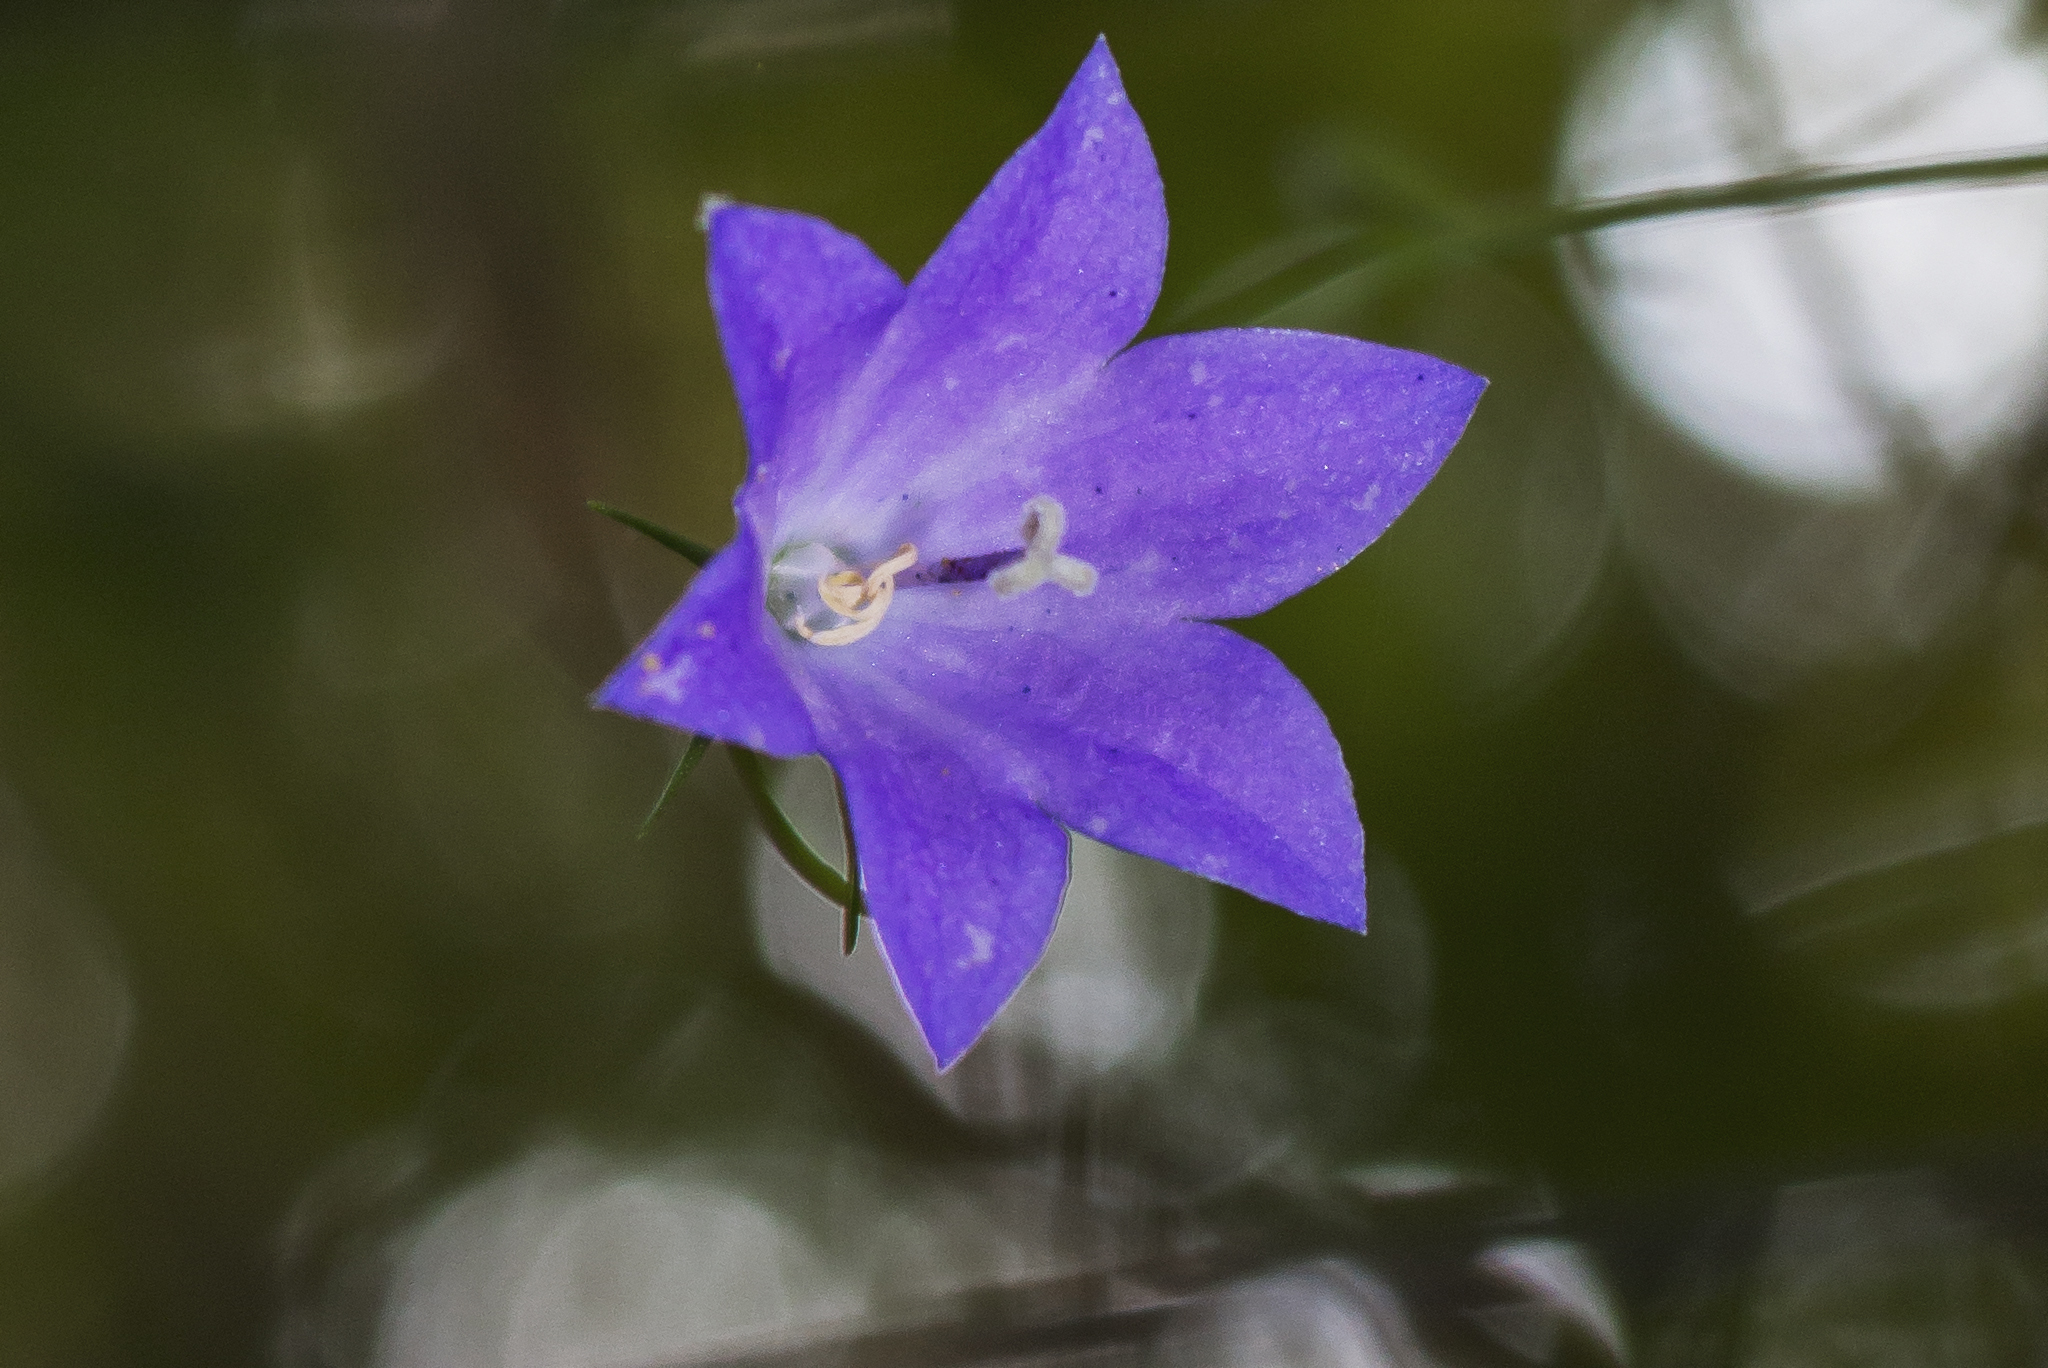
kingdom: Plantae
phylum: Tracheophyta
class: Magnoliopsida
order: Asterales
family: Campanulaceae
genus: Campanula
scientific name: Campanula intercedens
